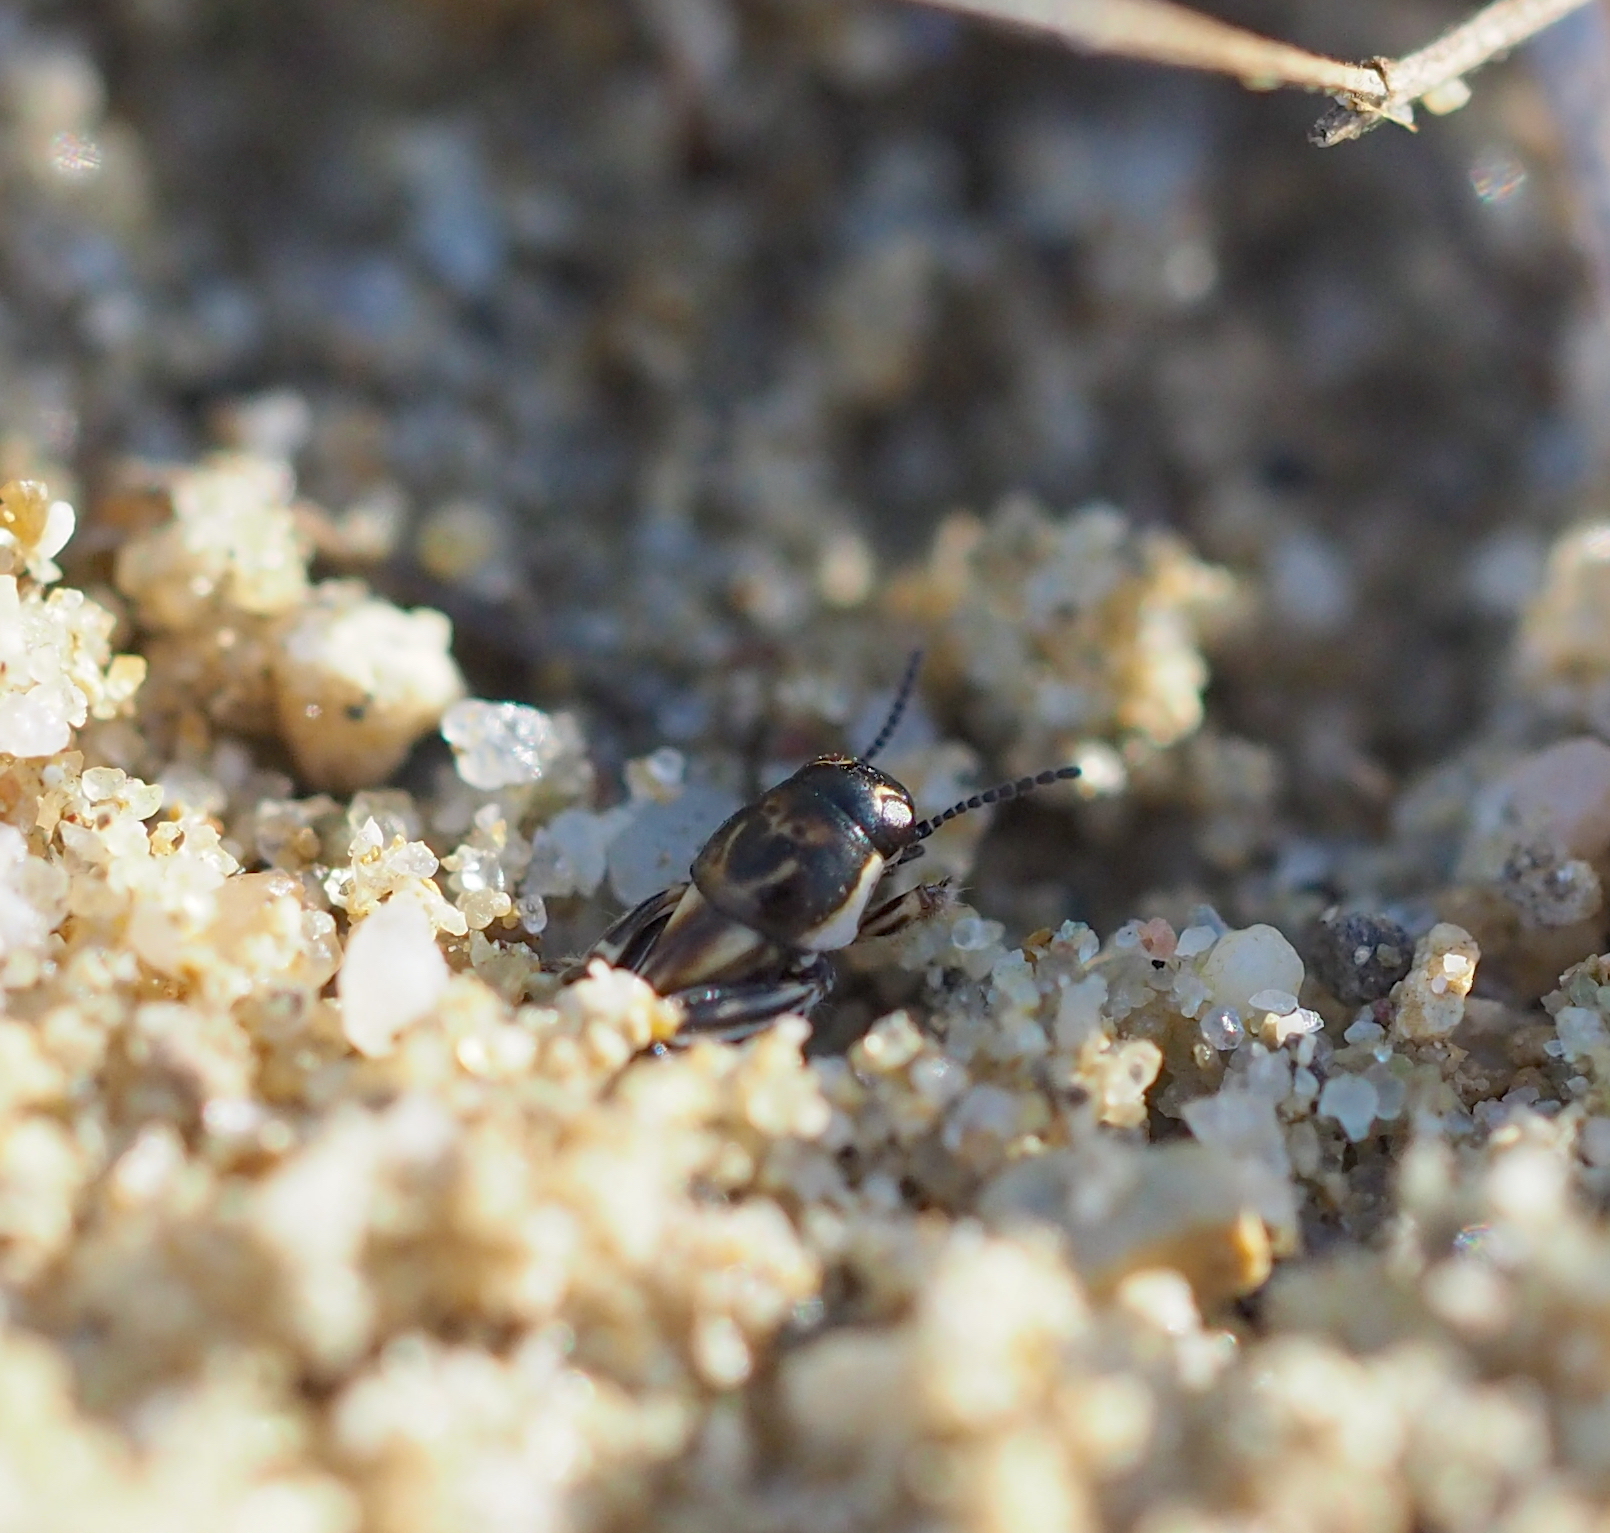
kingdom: Animalia
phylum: Arthropoda
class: Insecta
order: Orthoptera
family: Tridactylidae
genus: Xya
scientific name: Xya variegata
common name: Le tridactyle panaché
